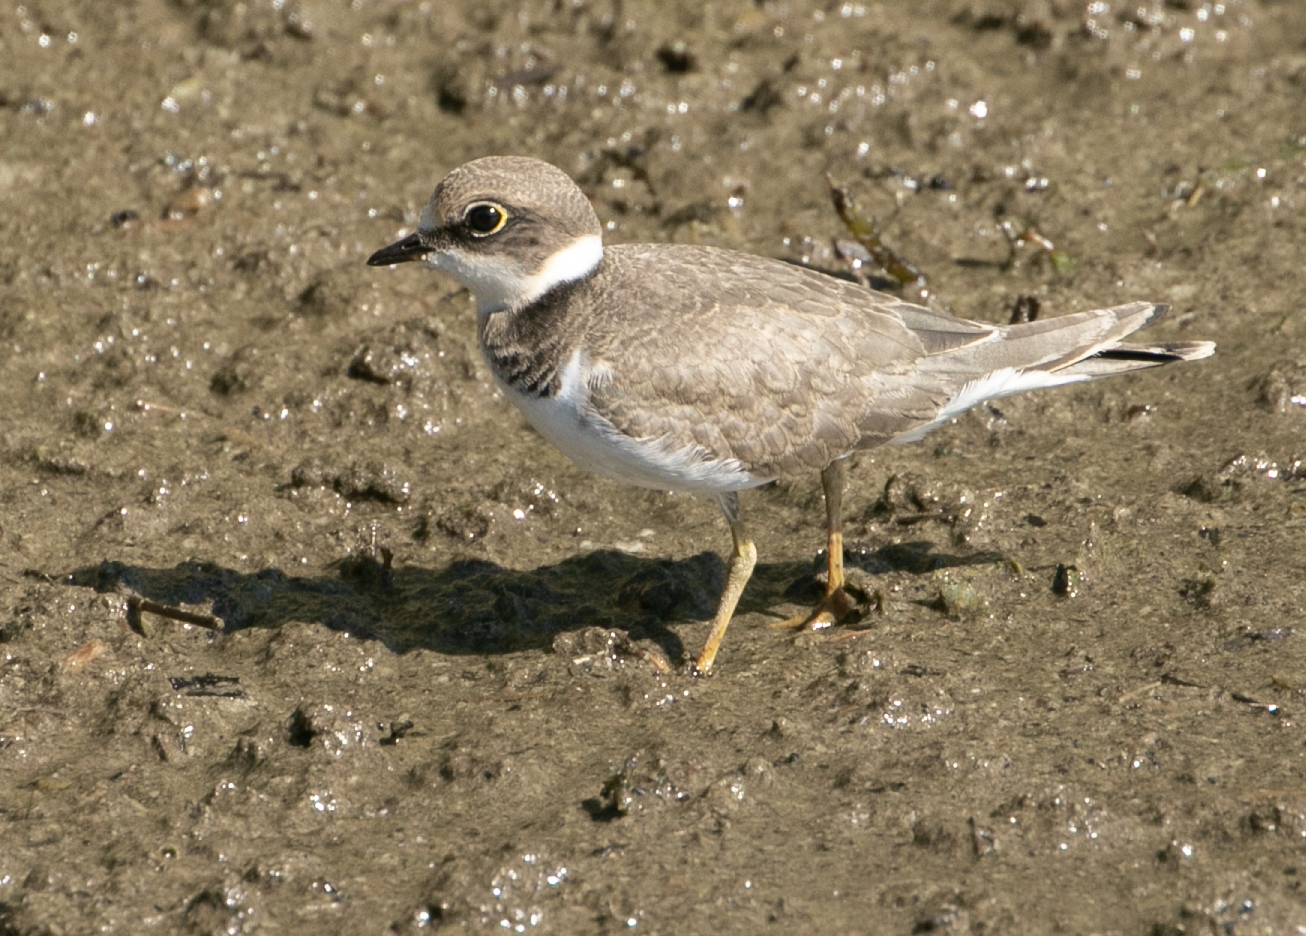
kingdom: Animalia
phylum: Chordata
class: Aves
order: Charadriiformes
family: Charadriidae
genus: Charadrius
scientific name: Charadrius dubius
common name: Little ringed plover
